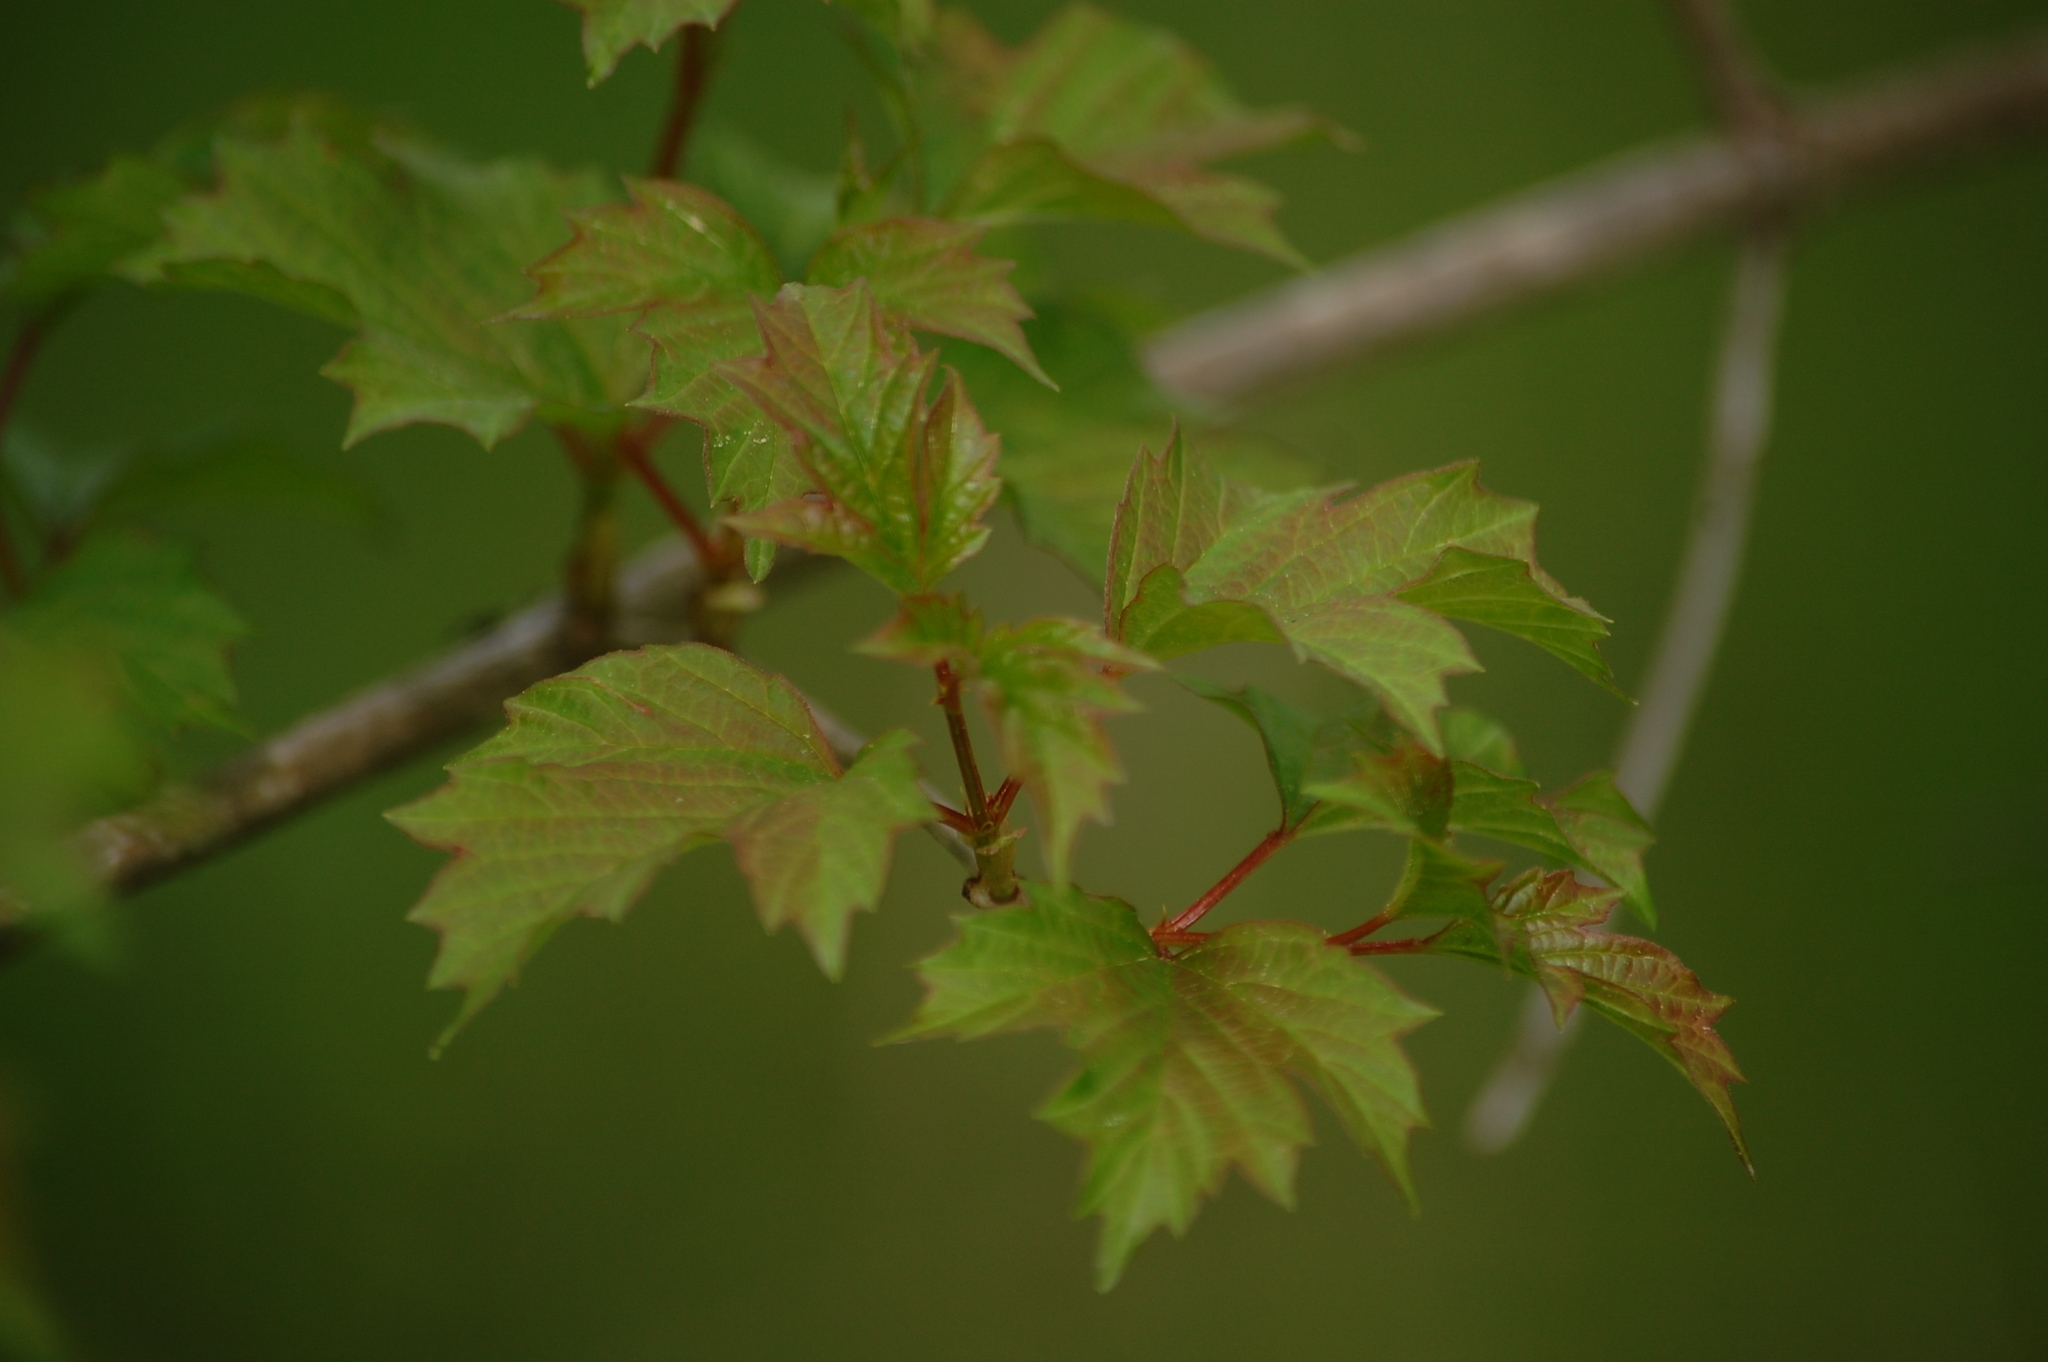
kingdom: Plantae
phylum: Tracheophyta
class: Magnoliopsida
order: Dipsacales
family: Viburnaceae
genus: Viburnum
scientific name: Viburnum opulus
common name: Guelder-rose
